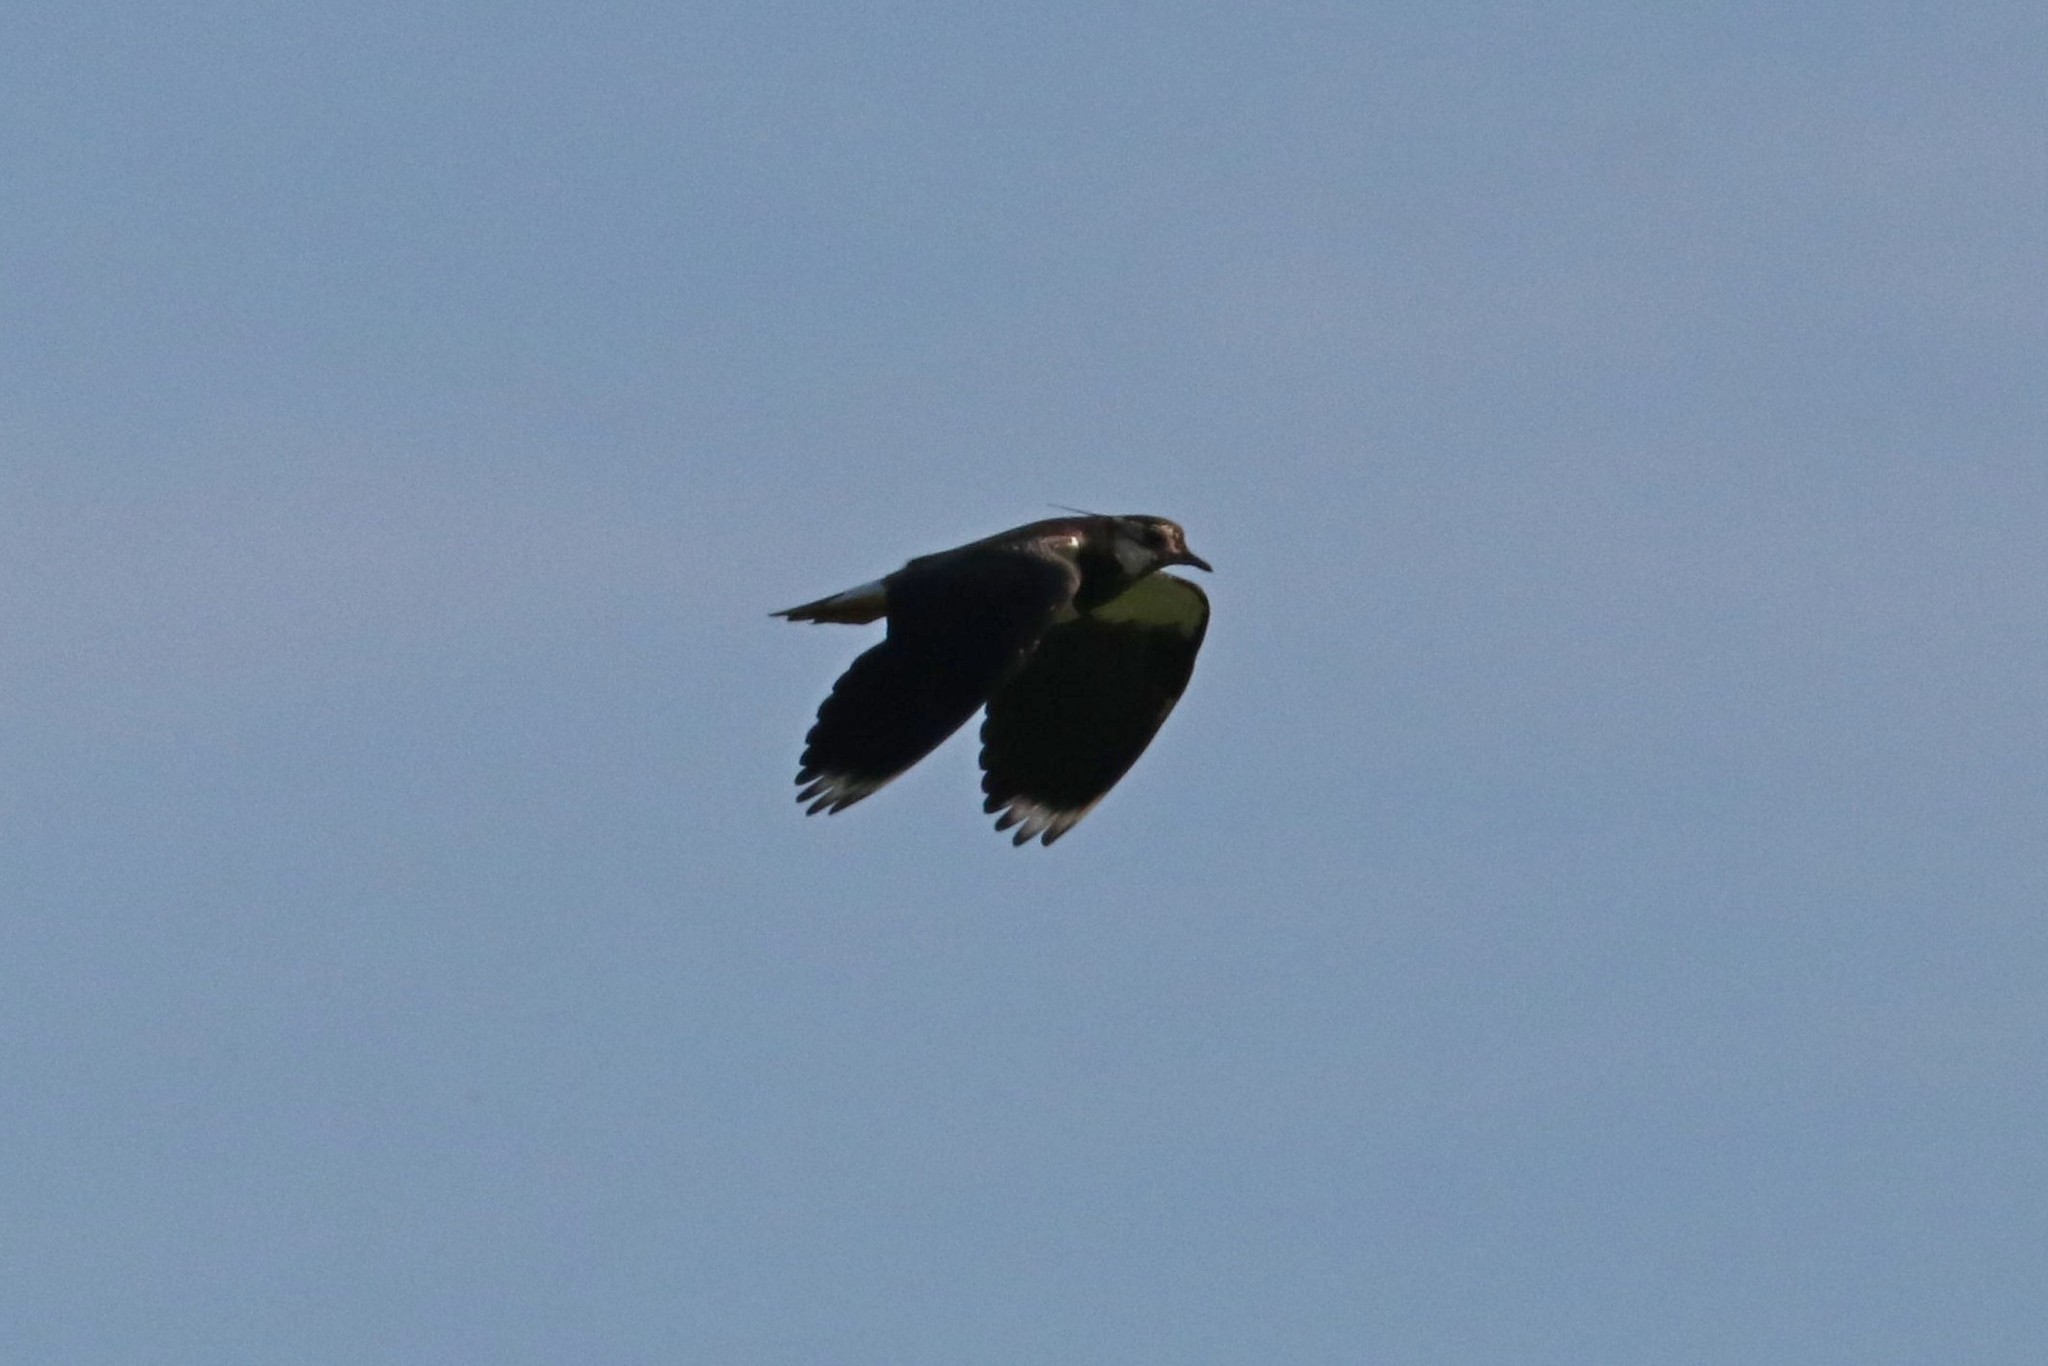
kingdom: Animalia
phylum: Chordata
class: Aves
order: Charadriiformes
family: Charadriidae
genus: Vanellus
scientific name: Vanellus vanellus
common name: Northern lapwing
